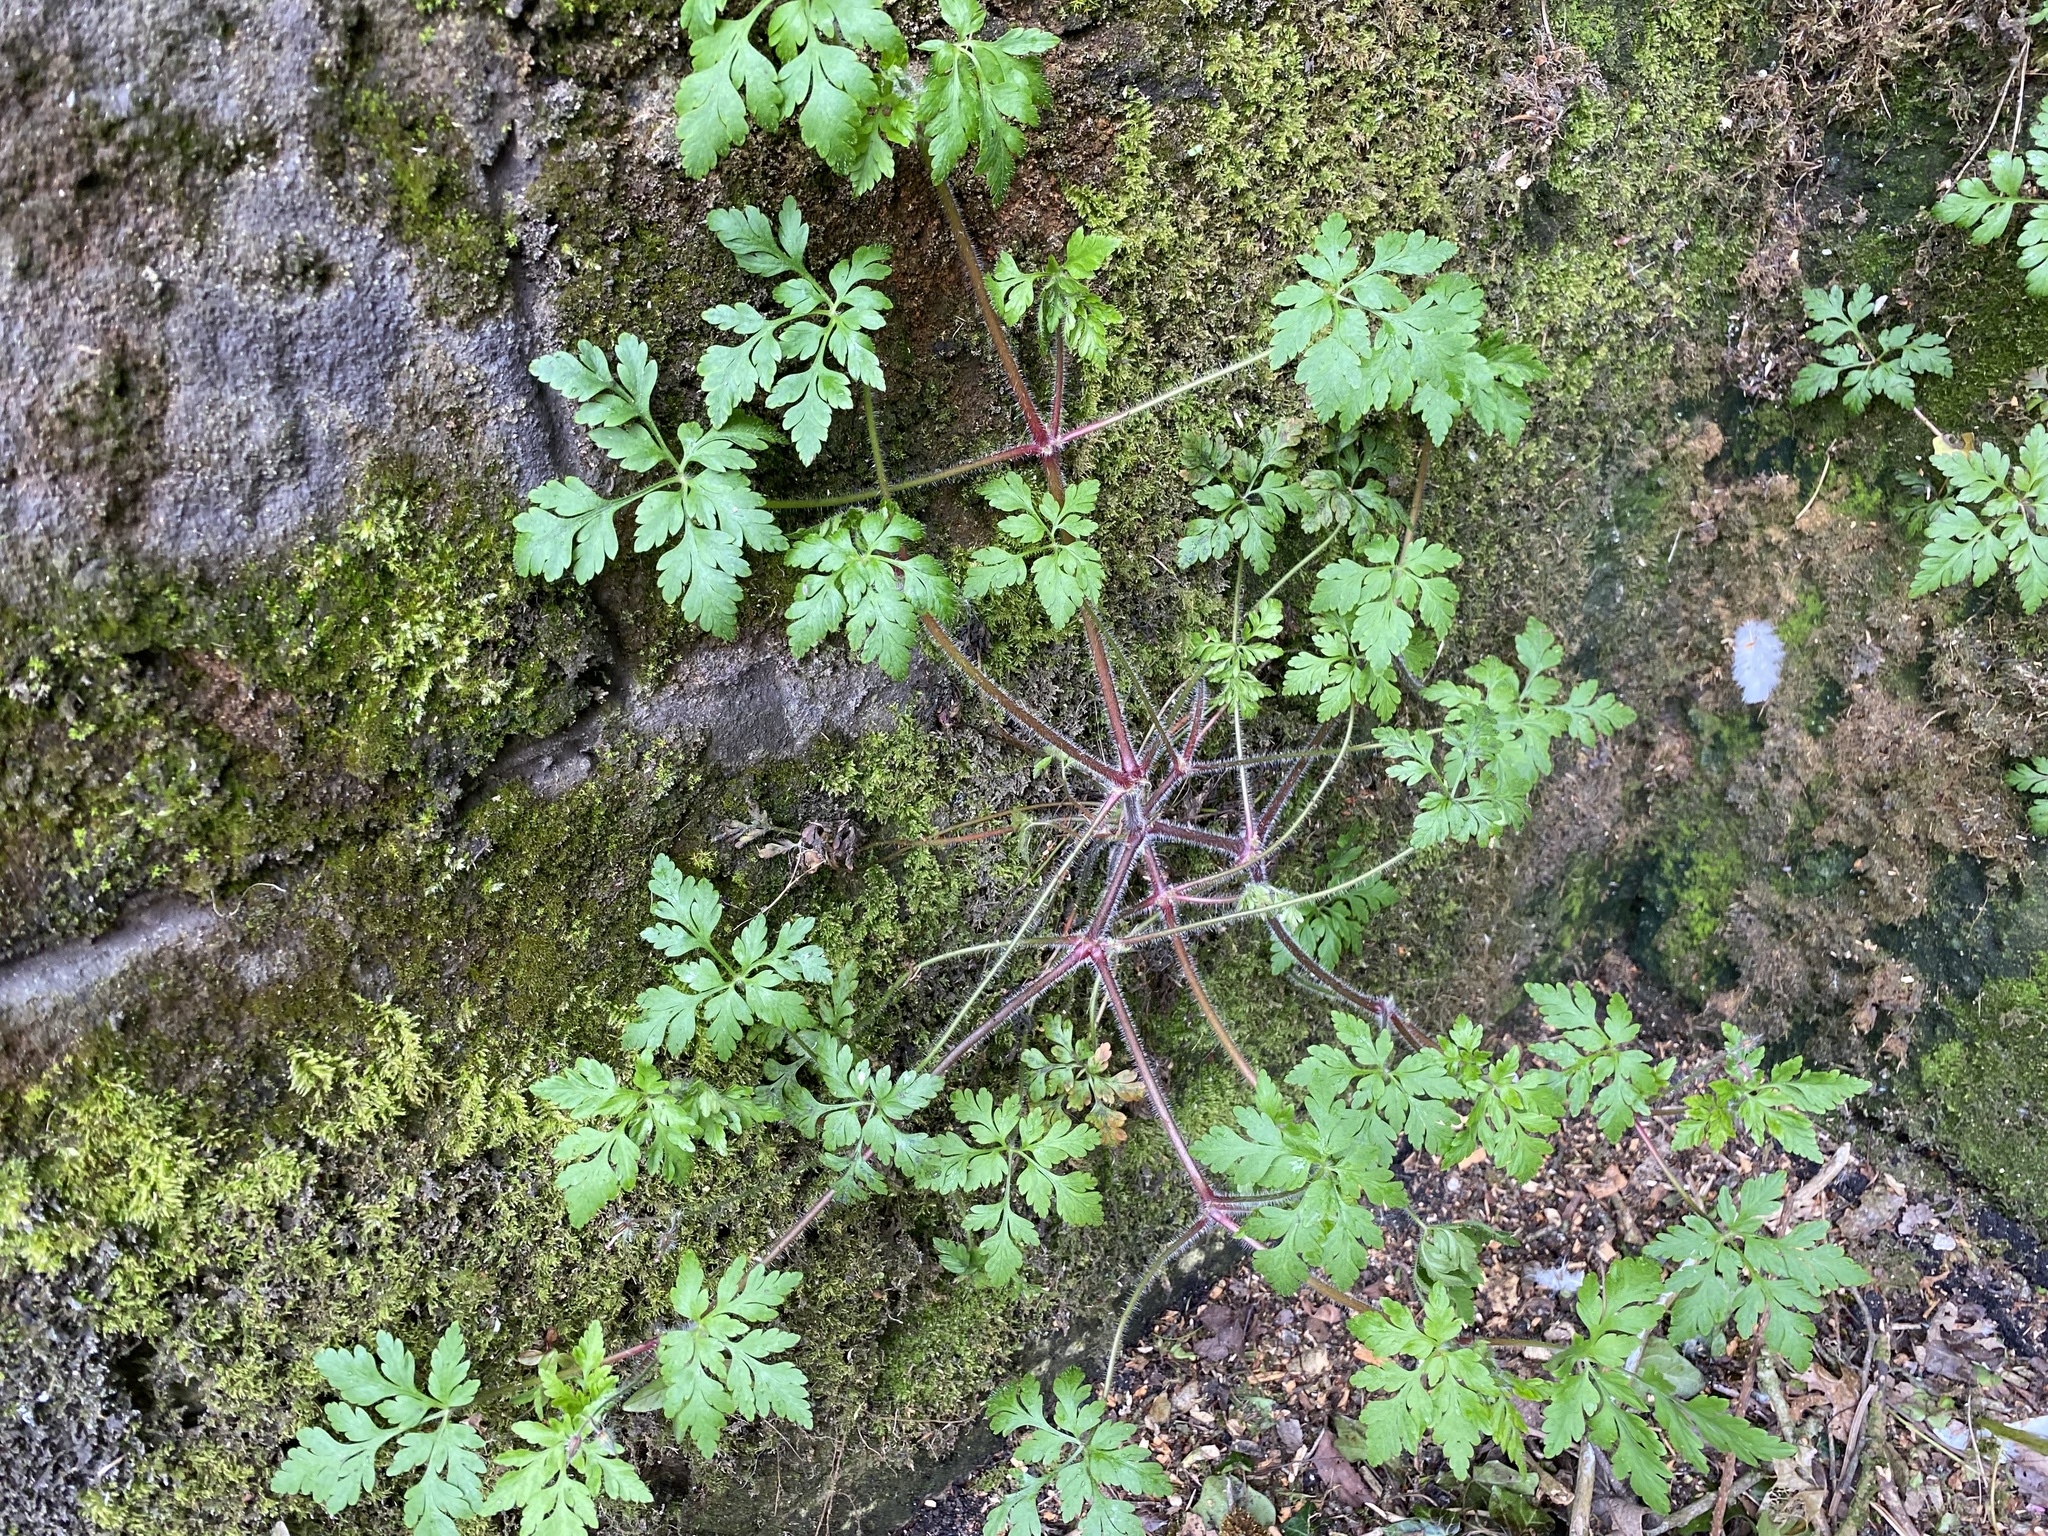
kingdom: Plantae
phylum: Tracheophyta
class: Magnoliopsida
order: Geraniales
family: Geraniaceae
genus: Geranium
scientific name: Geranium robertianum
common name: Herb-robert
